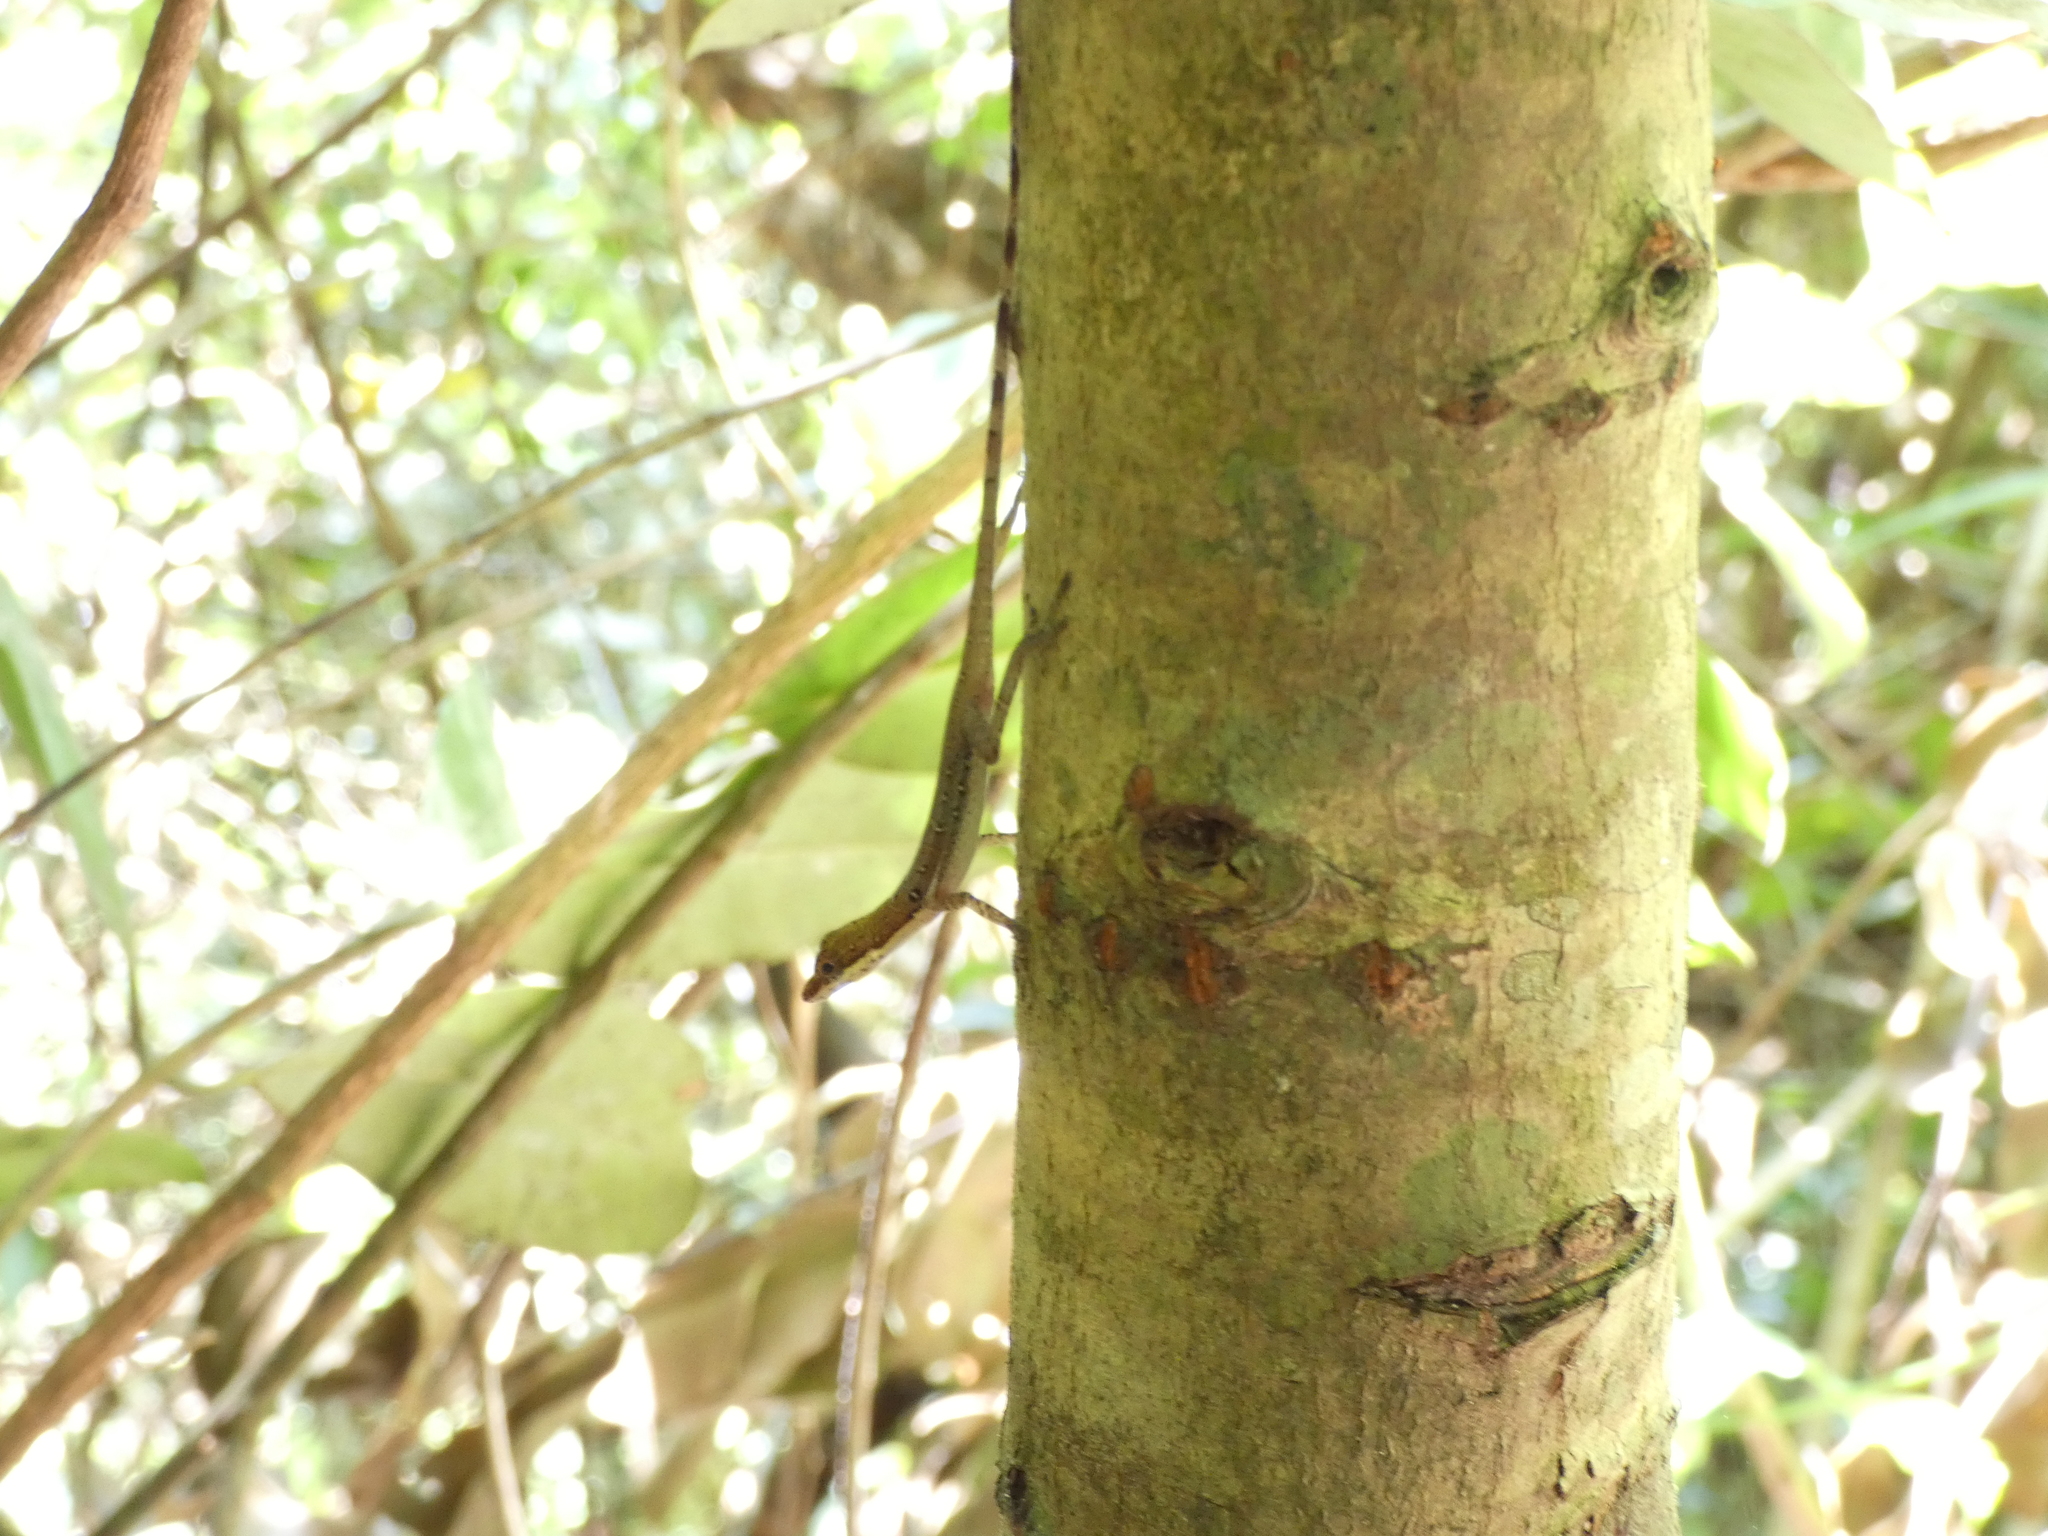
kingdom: Animalia
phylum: Chordata
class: Squamata
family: Dactyloidae
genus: Anolis
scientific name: Anolis limifrons
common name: Border anole
